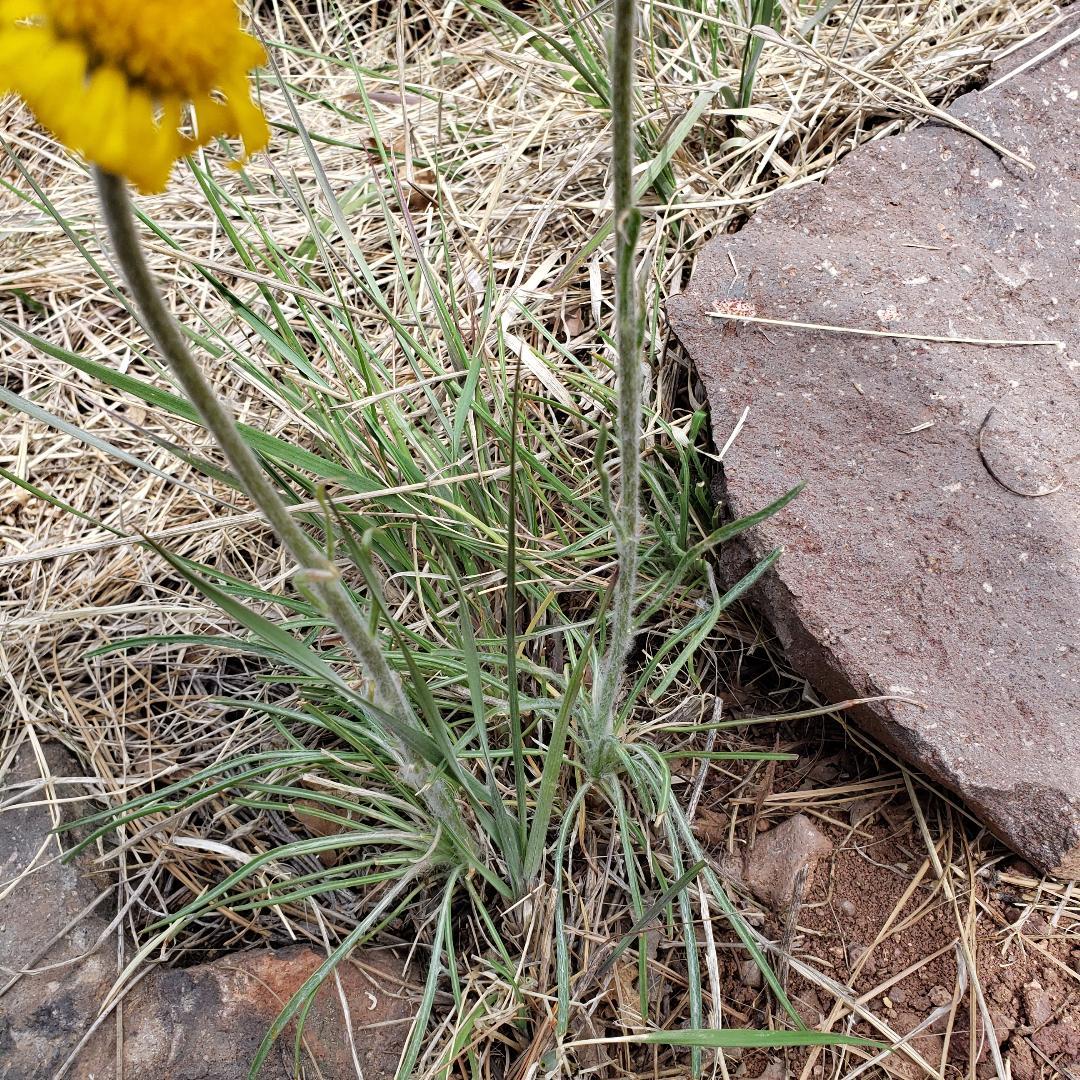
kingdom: Plantae
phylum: Tracheophyta
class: Magnoliopsida
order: Asterales
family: Asteraceae
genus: Hymenoxys
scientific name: Hymenoxys bigelovii
